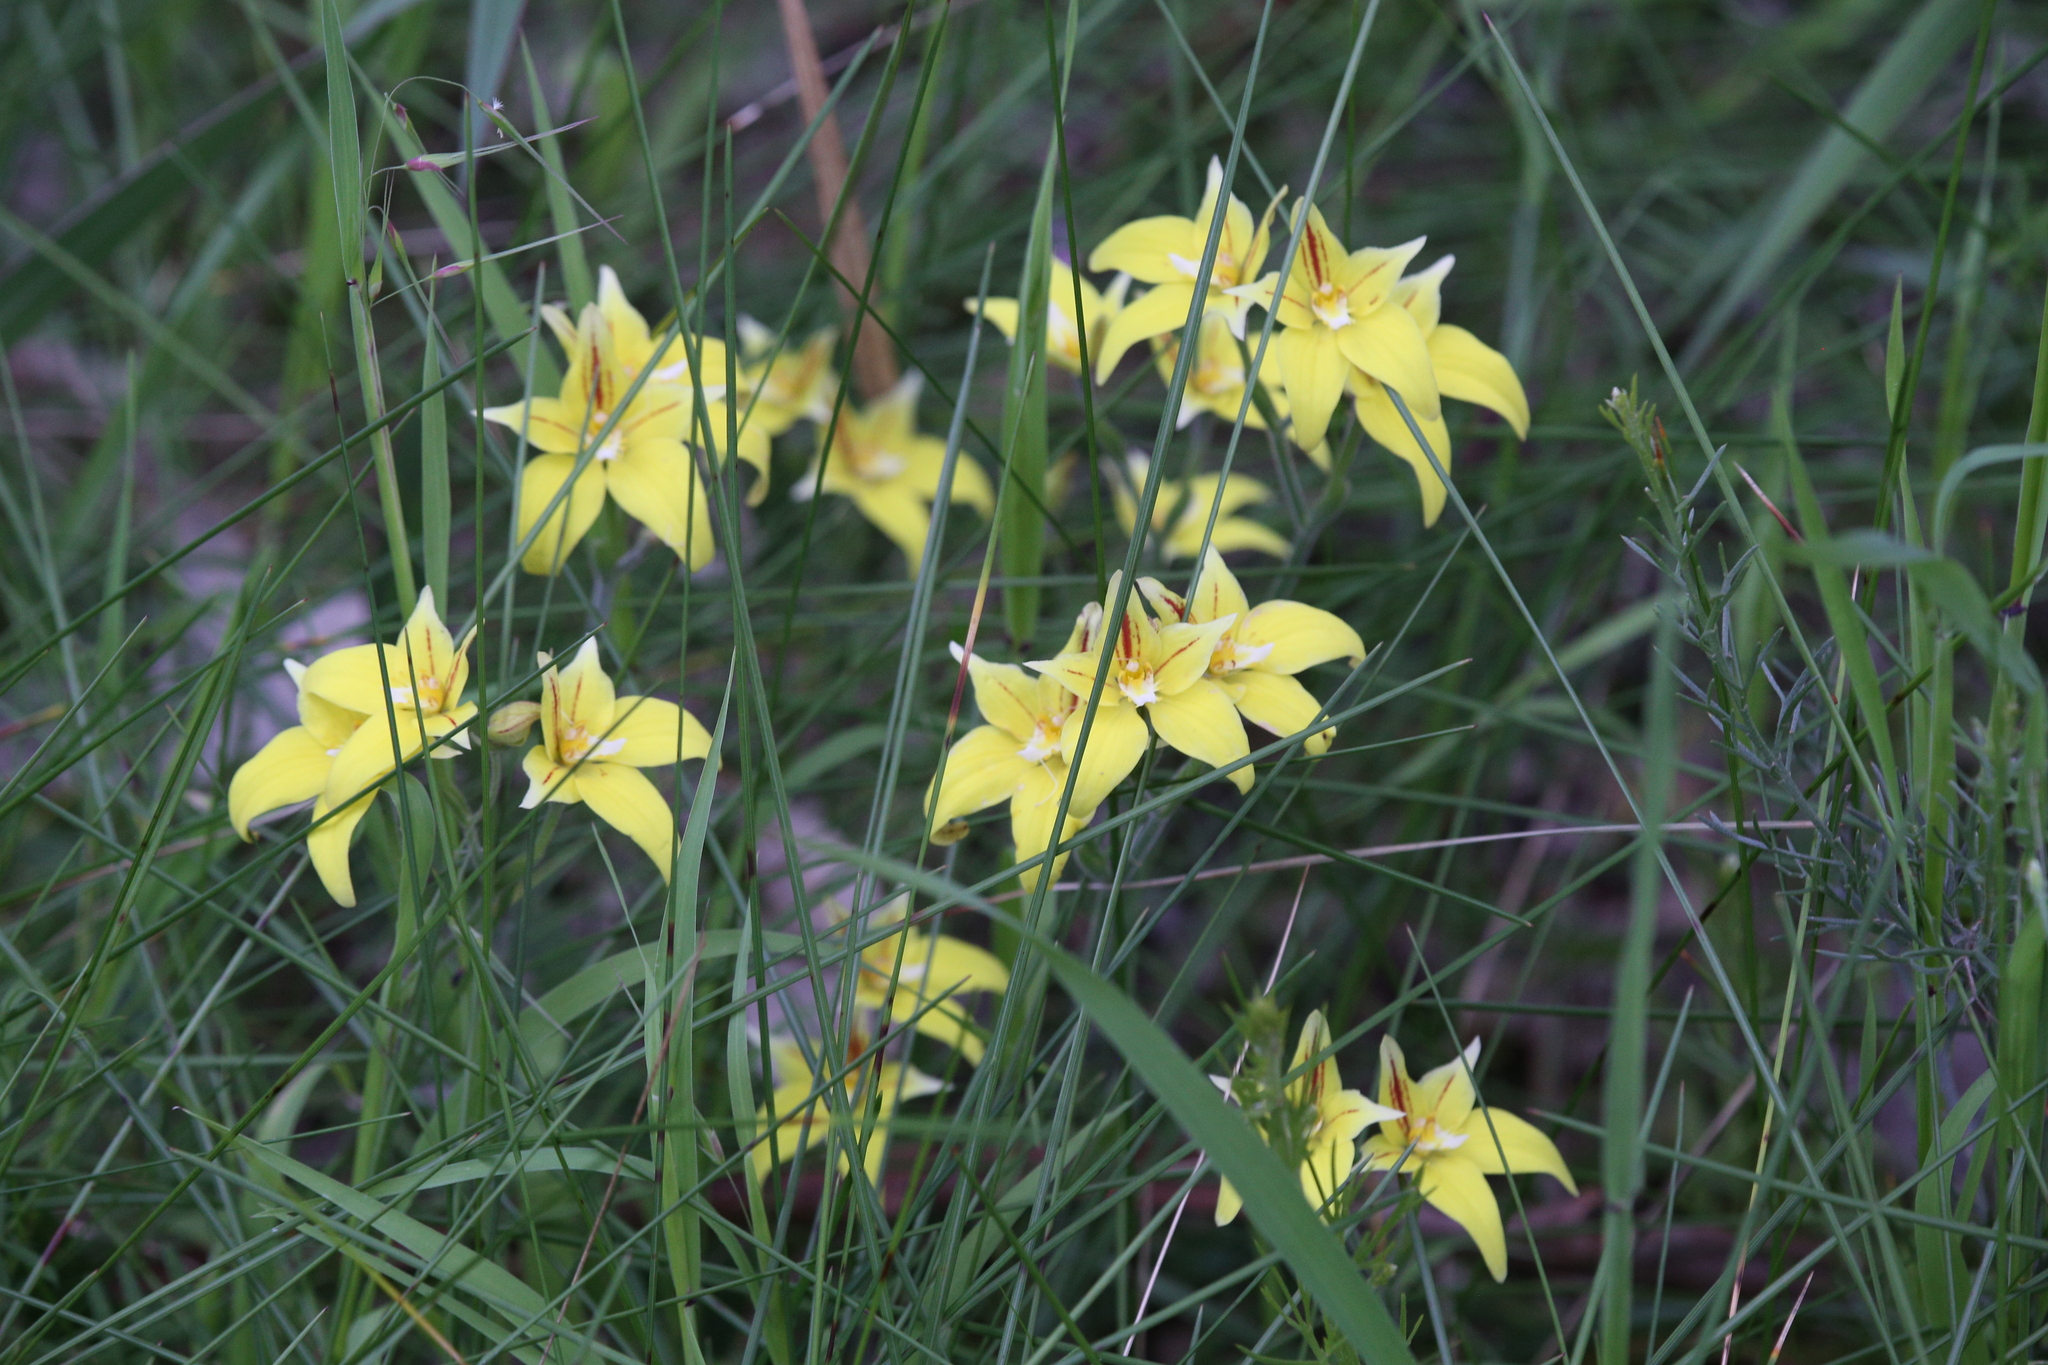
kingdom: Plantae
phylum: Tracheophyta
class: Liliopsida
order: Asparagales
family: Orchidaceae
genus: Caladenia
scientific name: Caladenia flava
